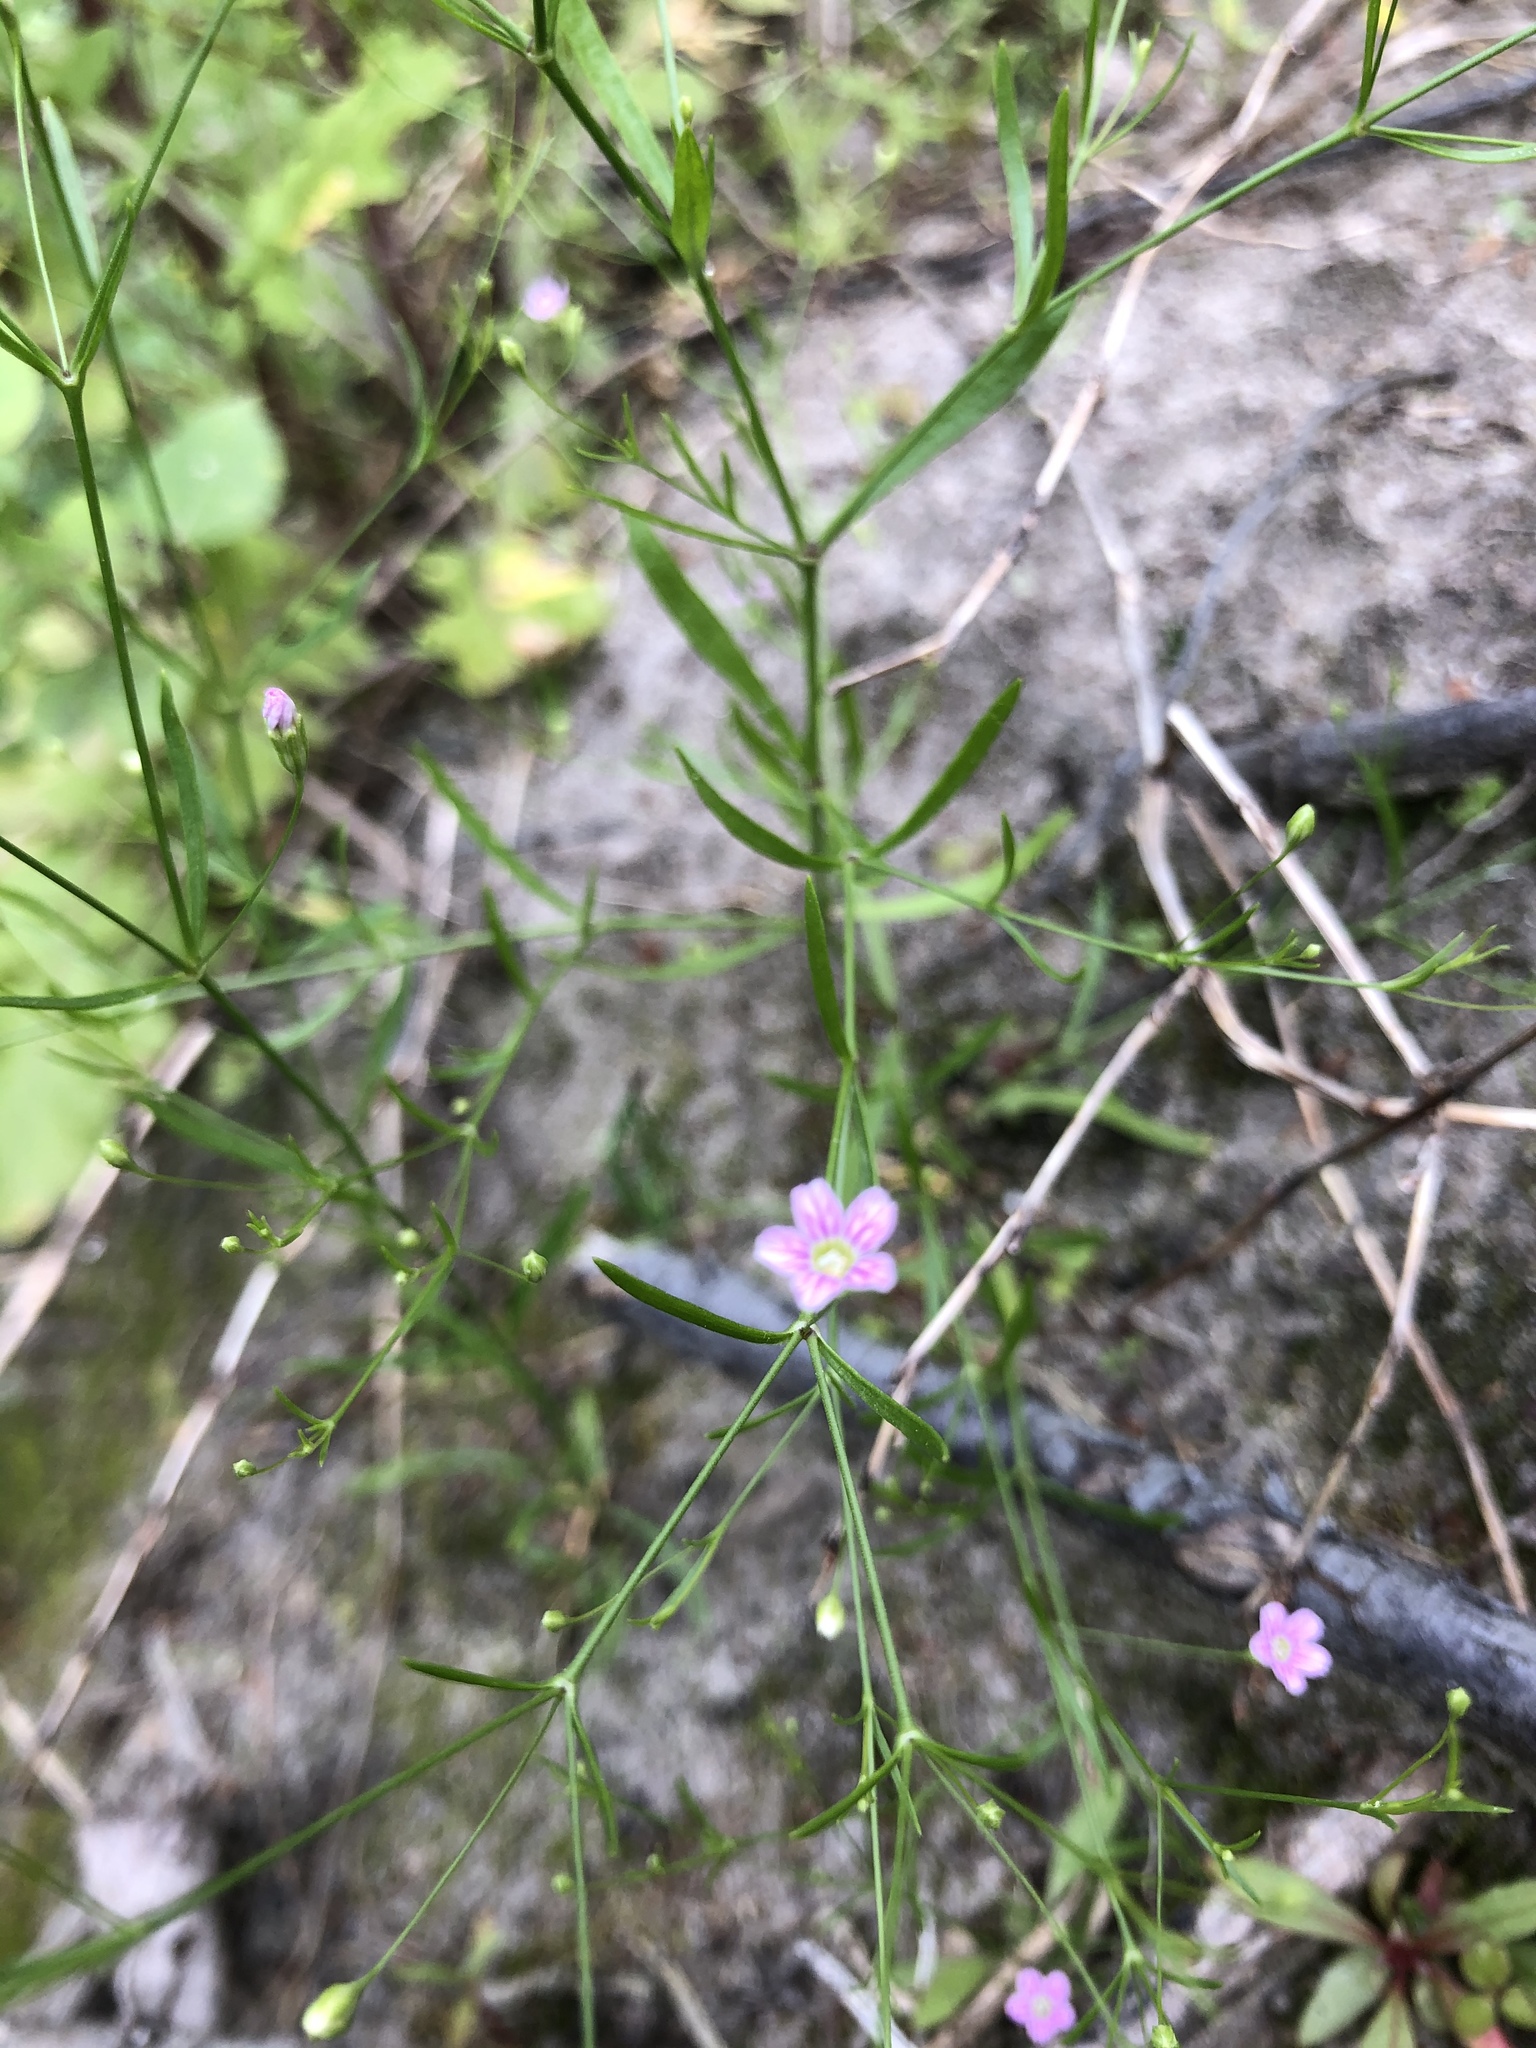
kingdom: Plantae
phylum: Tracheophyta
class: Magnoliopsida
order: Caryophyllales
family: Caryophyllaceae
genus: Psammophiliella
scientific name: Psammophiliella muralis
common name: Cushion baby's-breath
